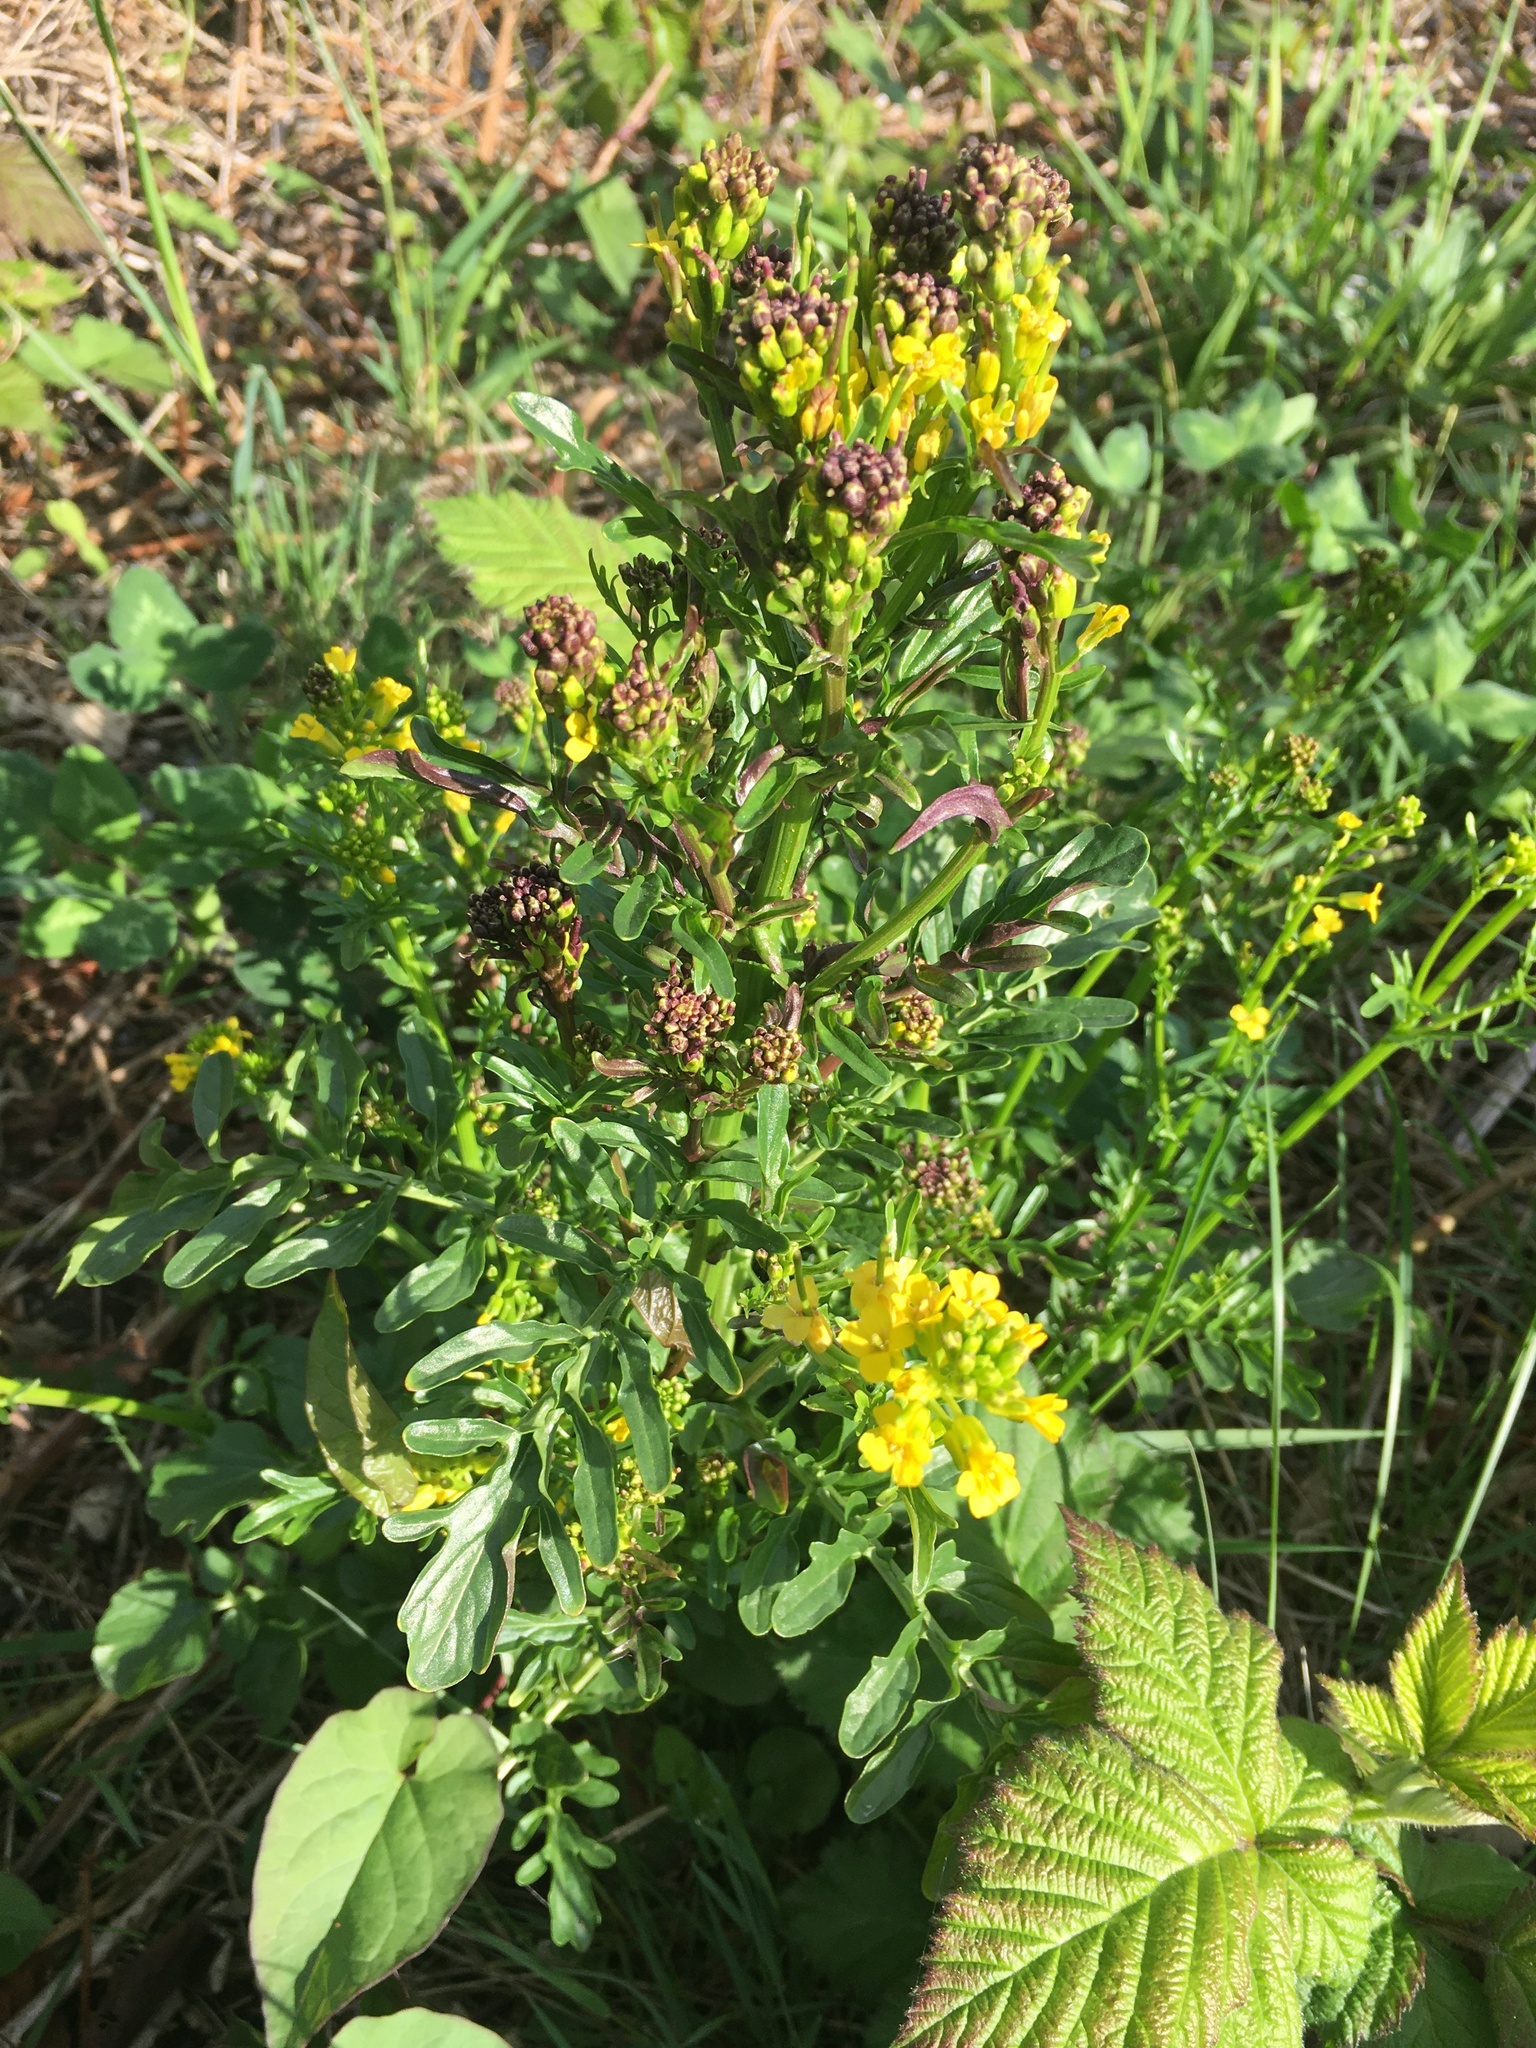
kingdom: Plantae
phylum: Tracheophyta
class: Magnoliopsida
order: Brassicales
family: Brassicaceae
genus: Barbarea
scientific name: Barbarea orthoceras
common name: American wintercress
